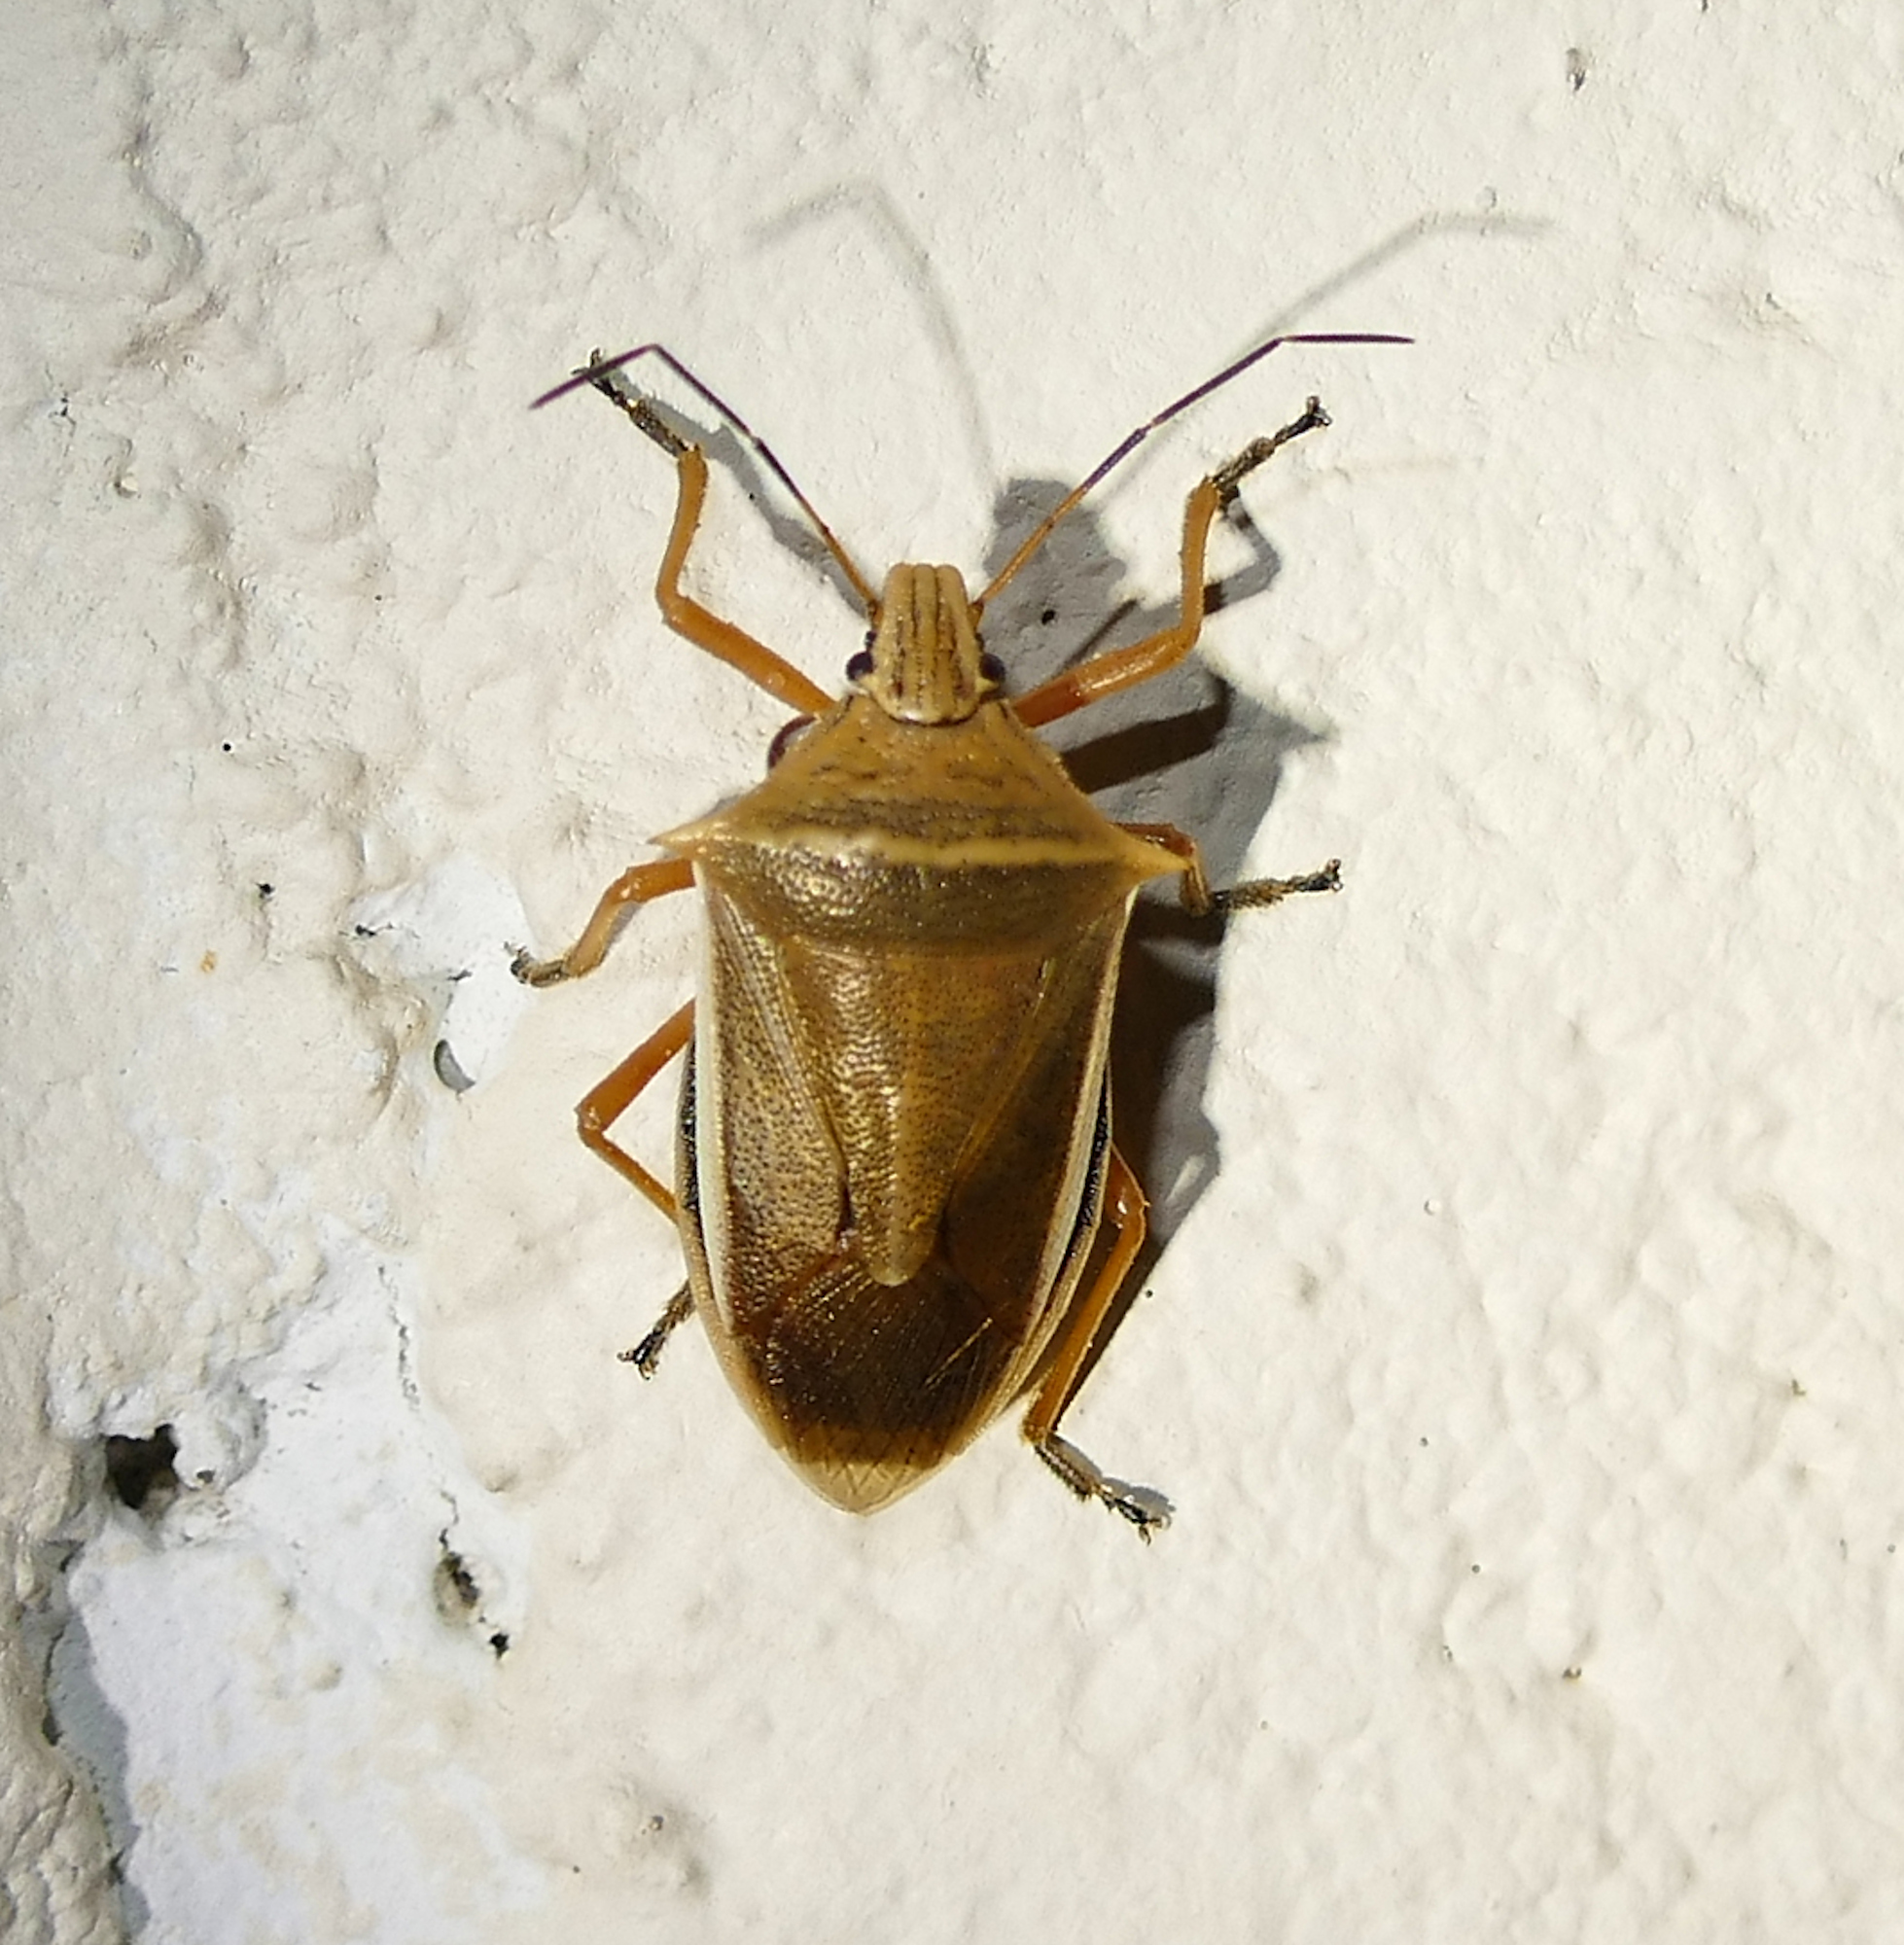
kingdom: Animalia
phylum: Arthropoda
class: Insecta
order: Hemiptera
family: Pentatomidae
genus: Andrallus
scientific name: Andrallus spinidens
